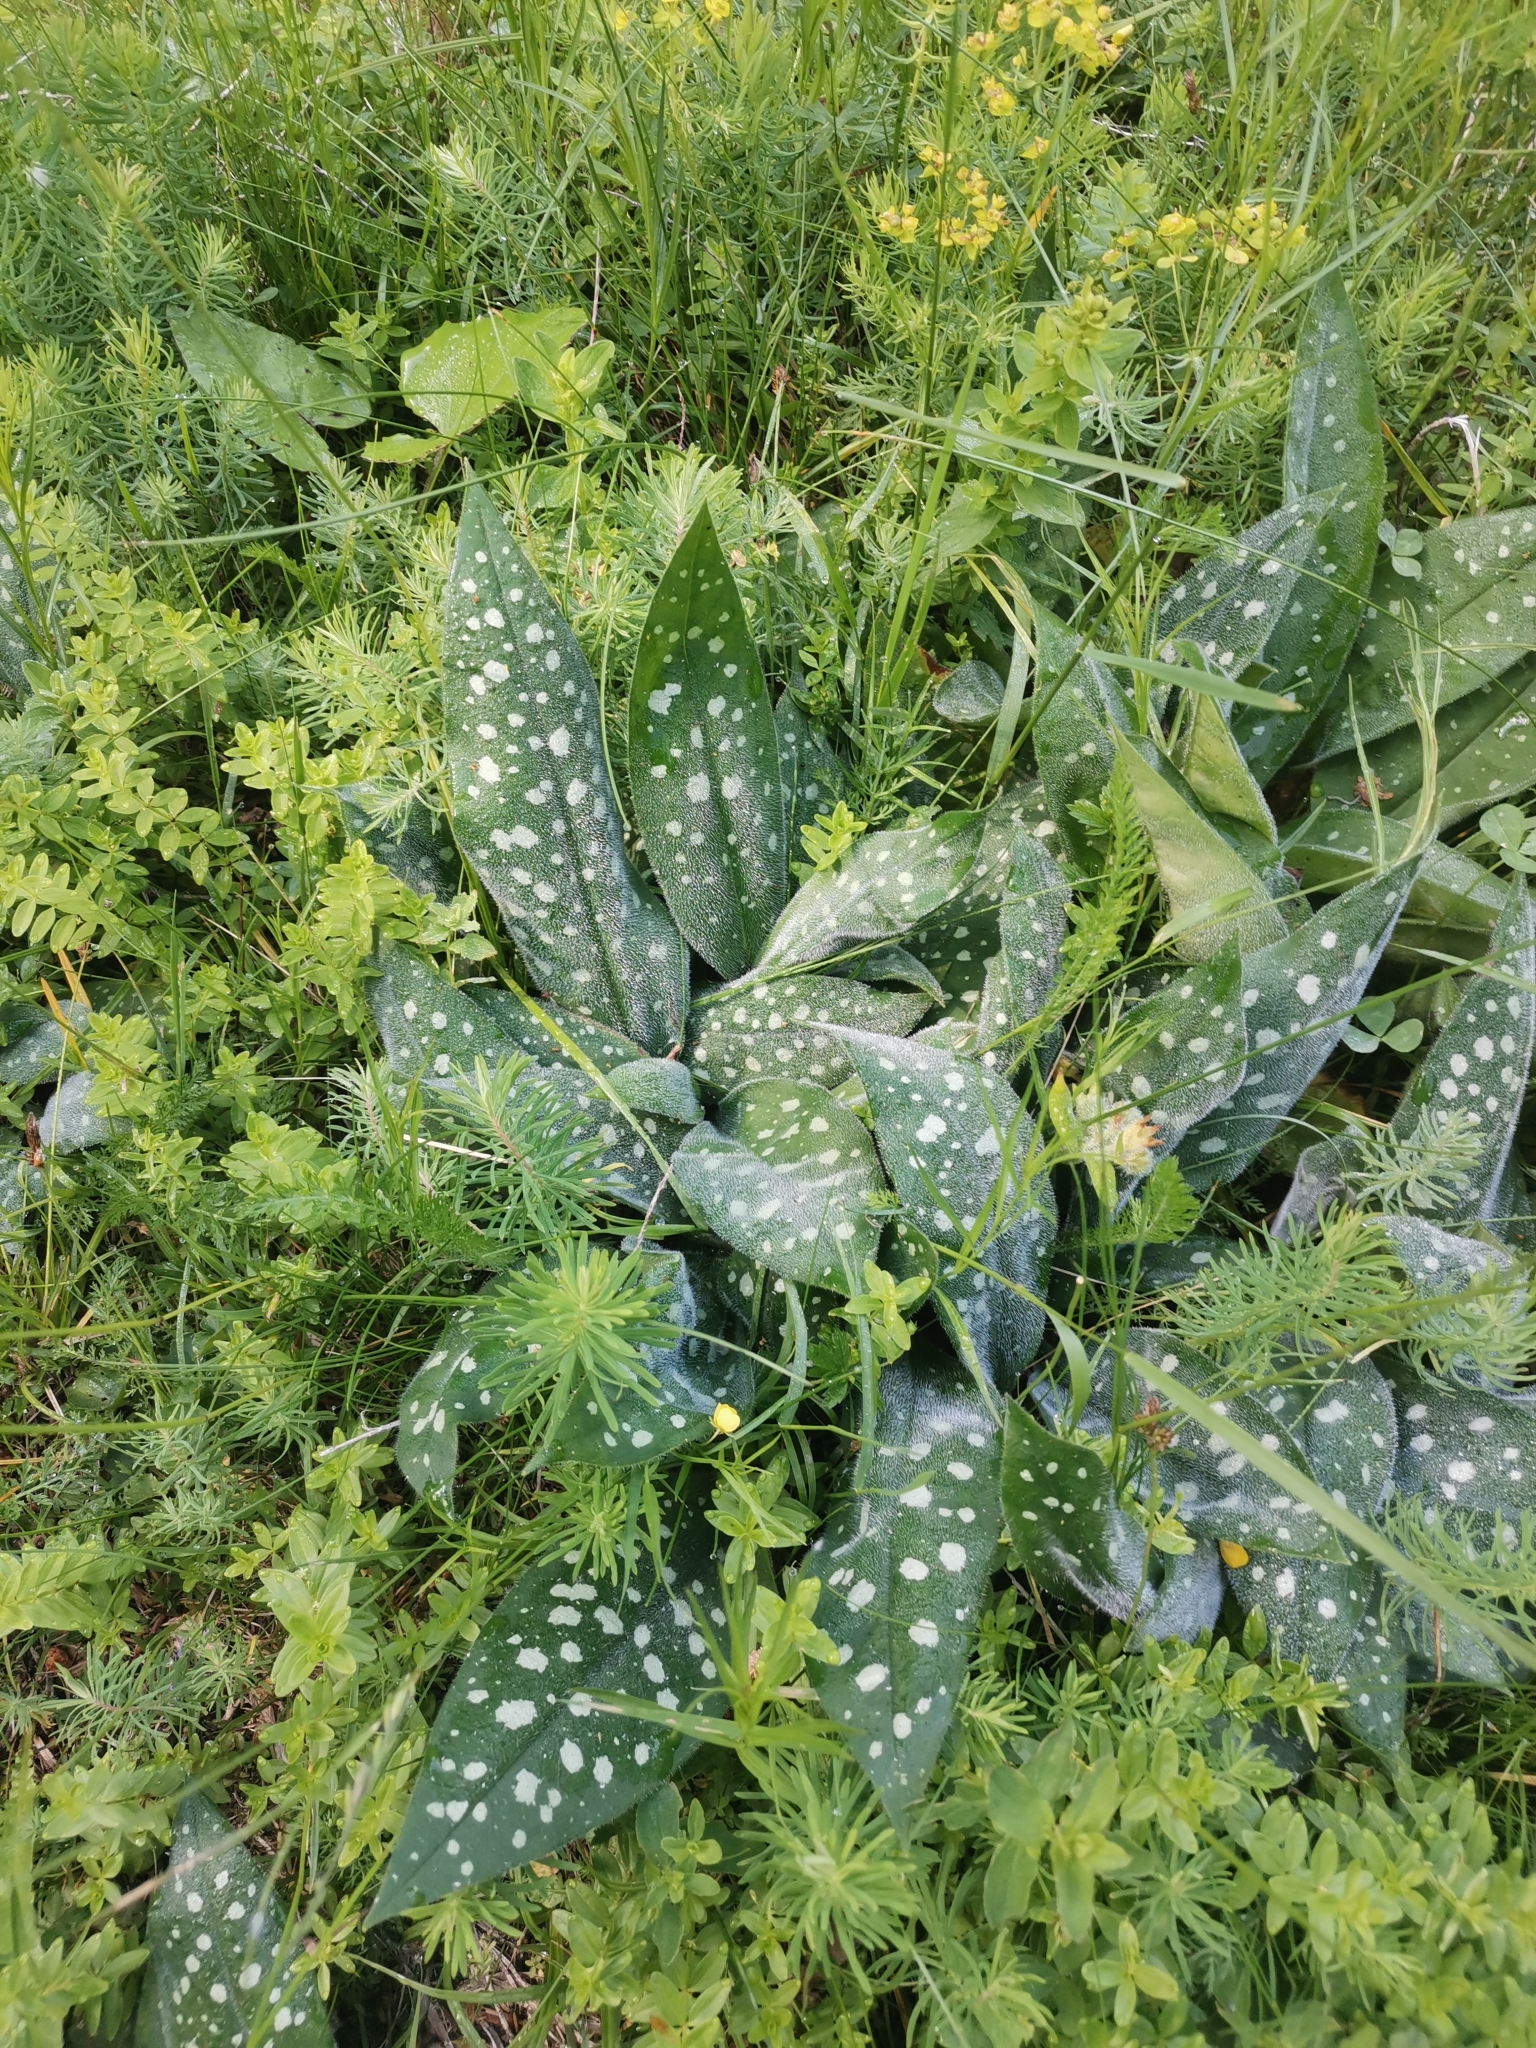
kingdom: Plantae
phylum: Tracheophyta
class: Magnoliopsida
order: Boraginales
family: Boraginaceae
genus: Pulmonaria
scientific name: Pulmonaria stiriaca
